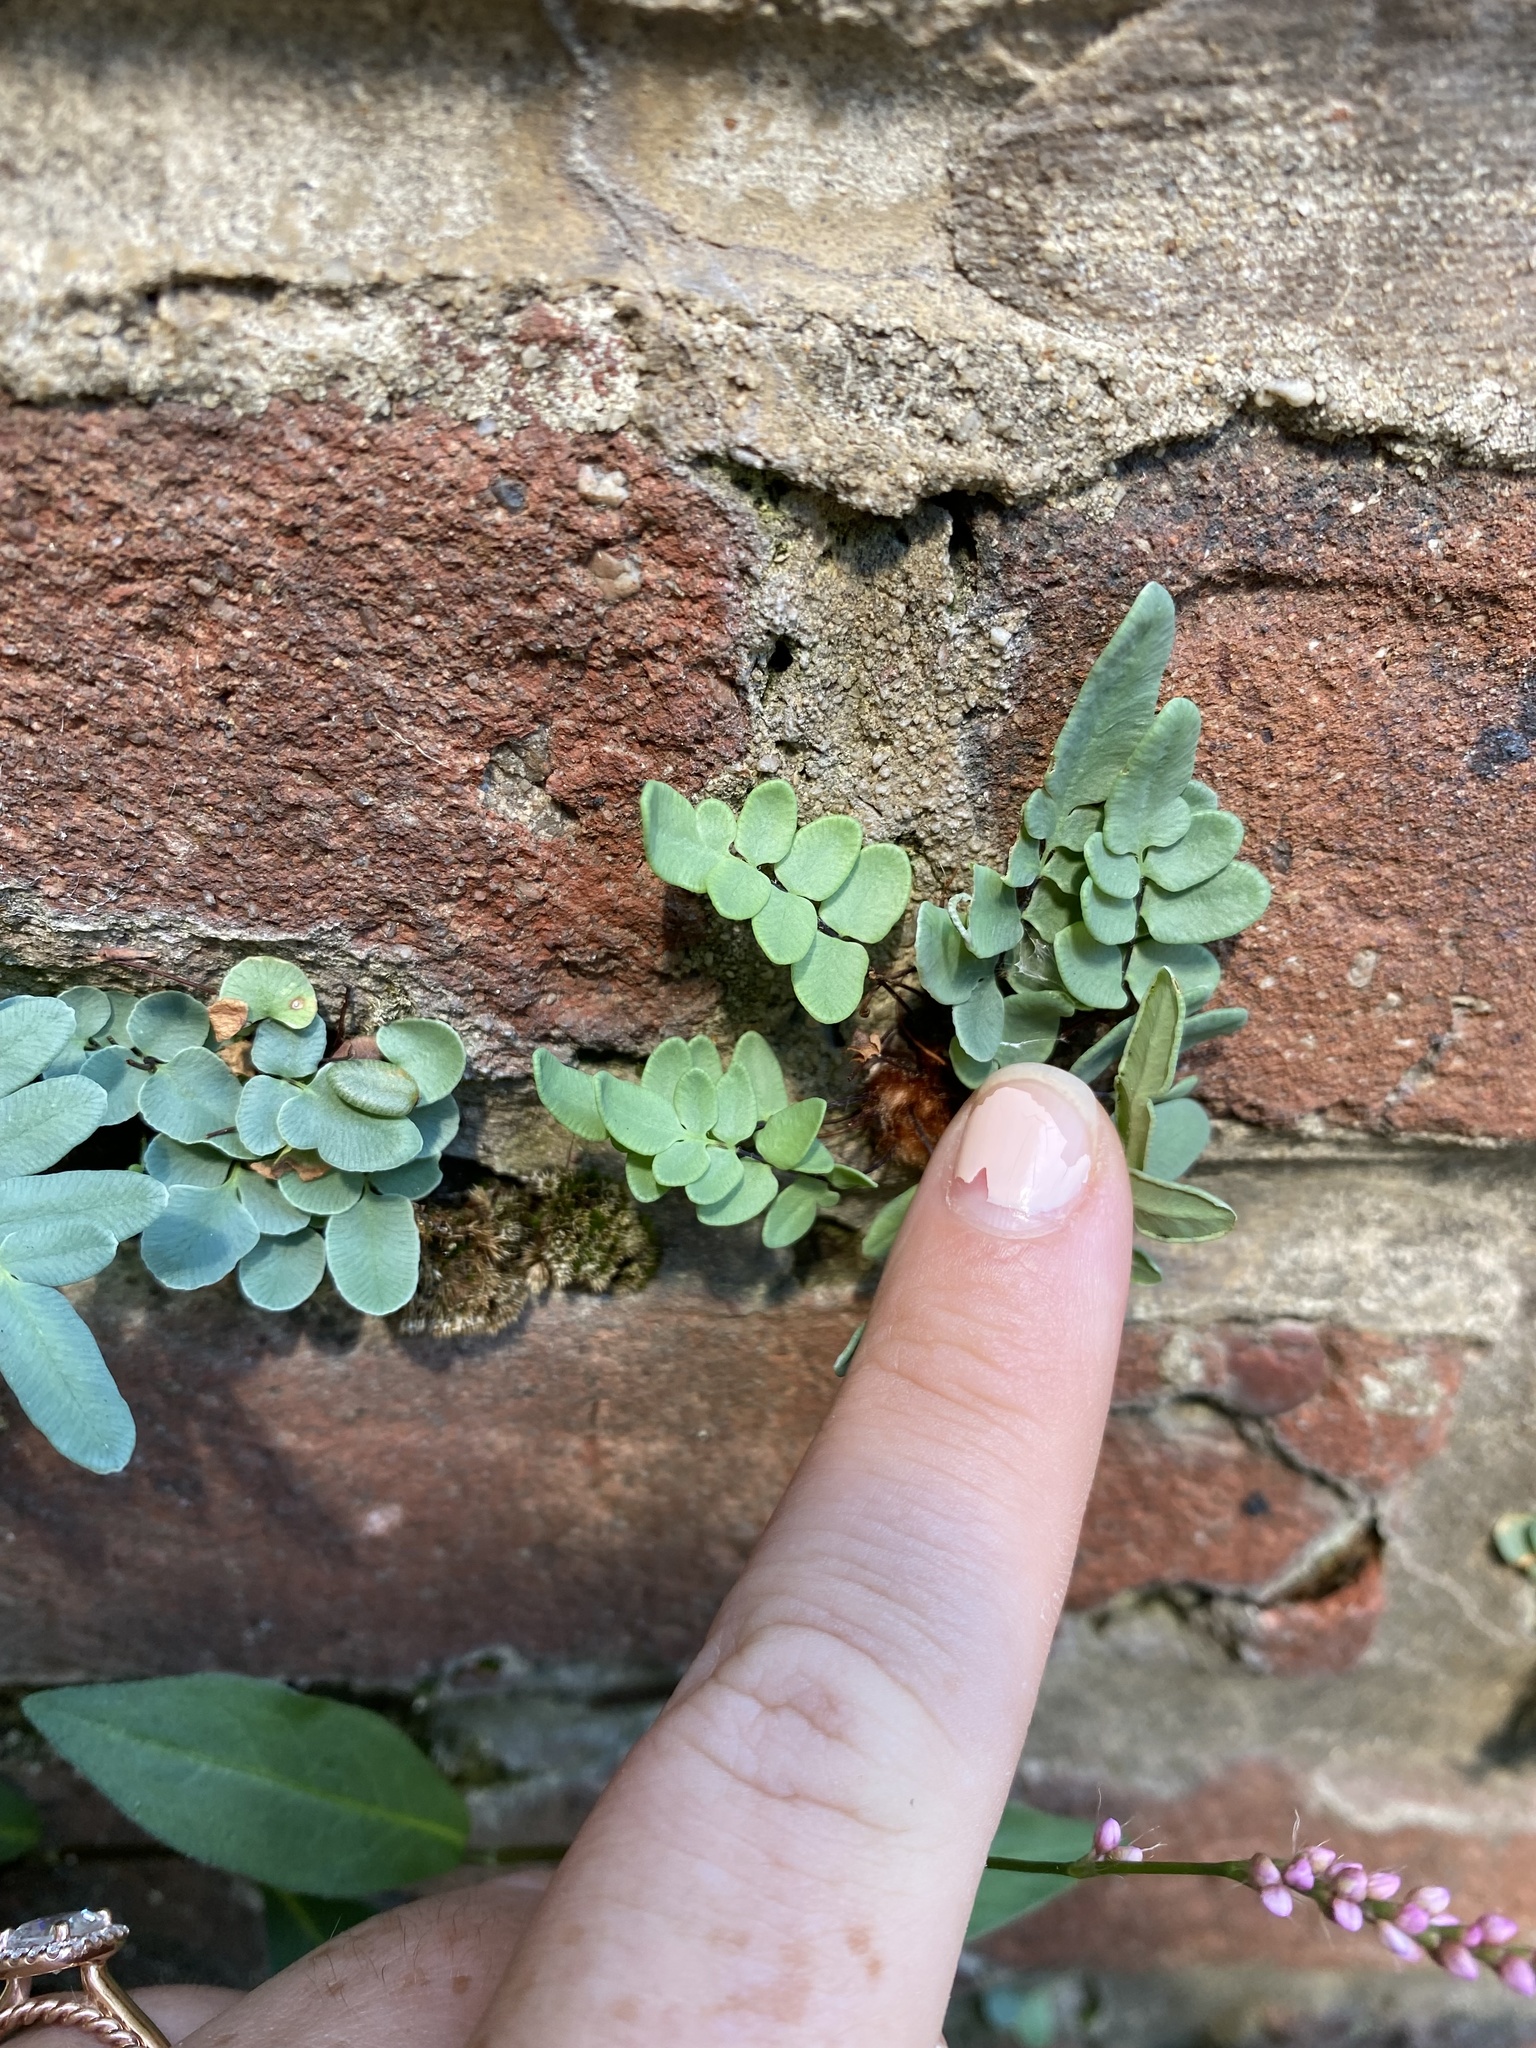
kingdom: Plantae
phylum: Tracheophyta
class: Polypodiopsida
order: Polypodiales
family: Pteridaceae
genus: Pellaea
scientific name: Pellaea glabella
